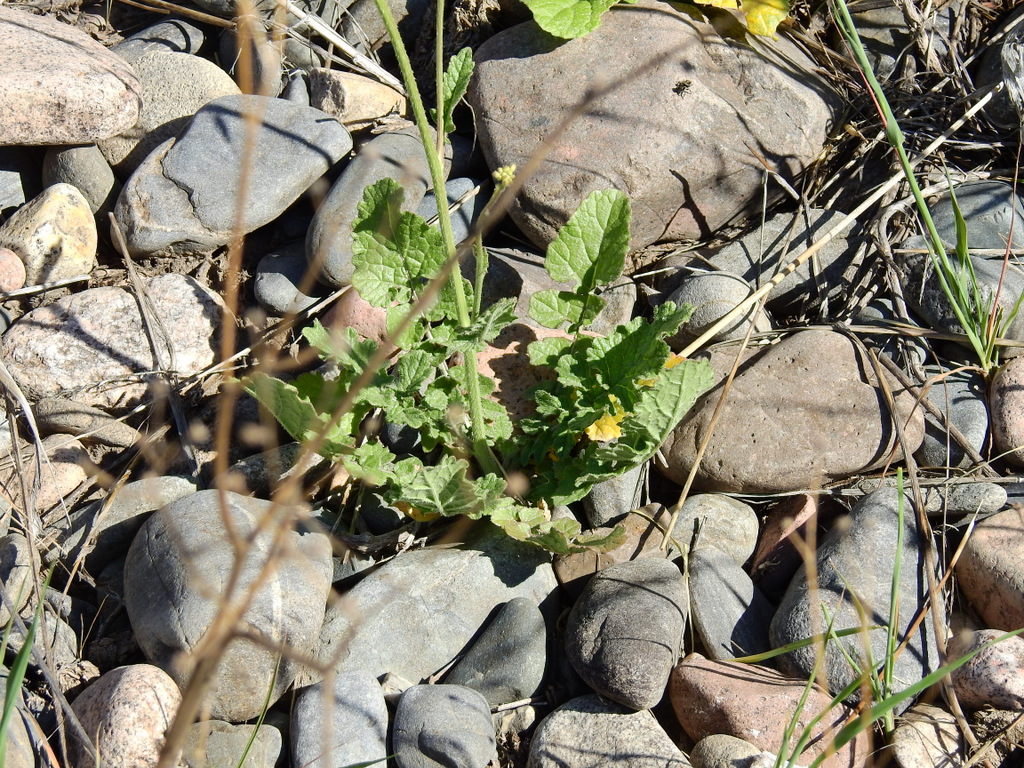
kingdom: Plantae
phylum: Tracheophyta
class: Magnoliopsida
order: Brassicales
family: Brassicaceae
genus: Hirschfeldia
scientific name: Hirschfeldia incana
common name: Hoary mustard
